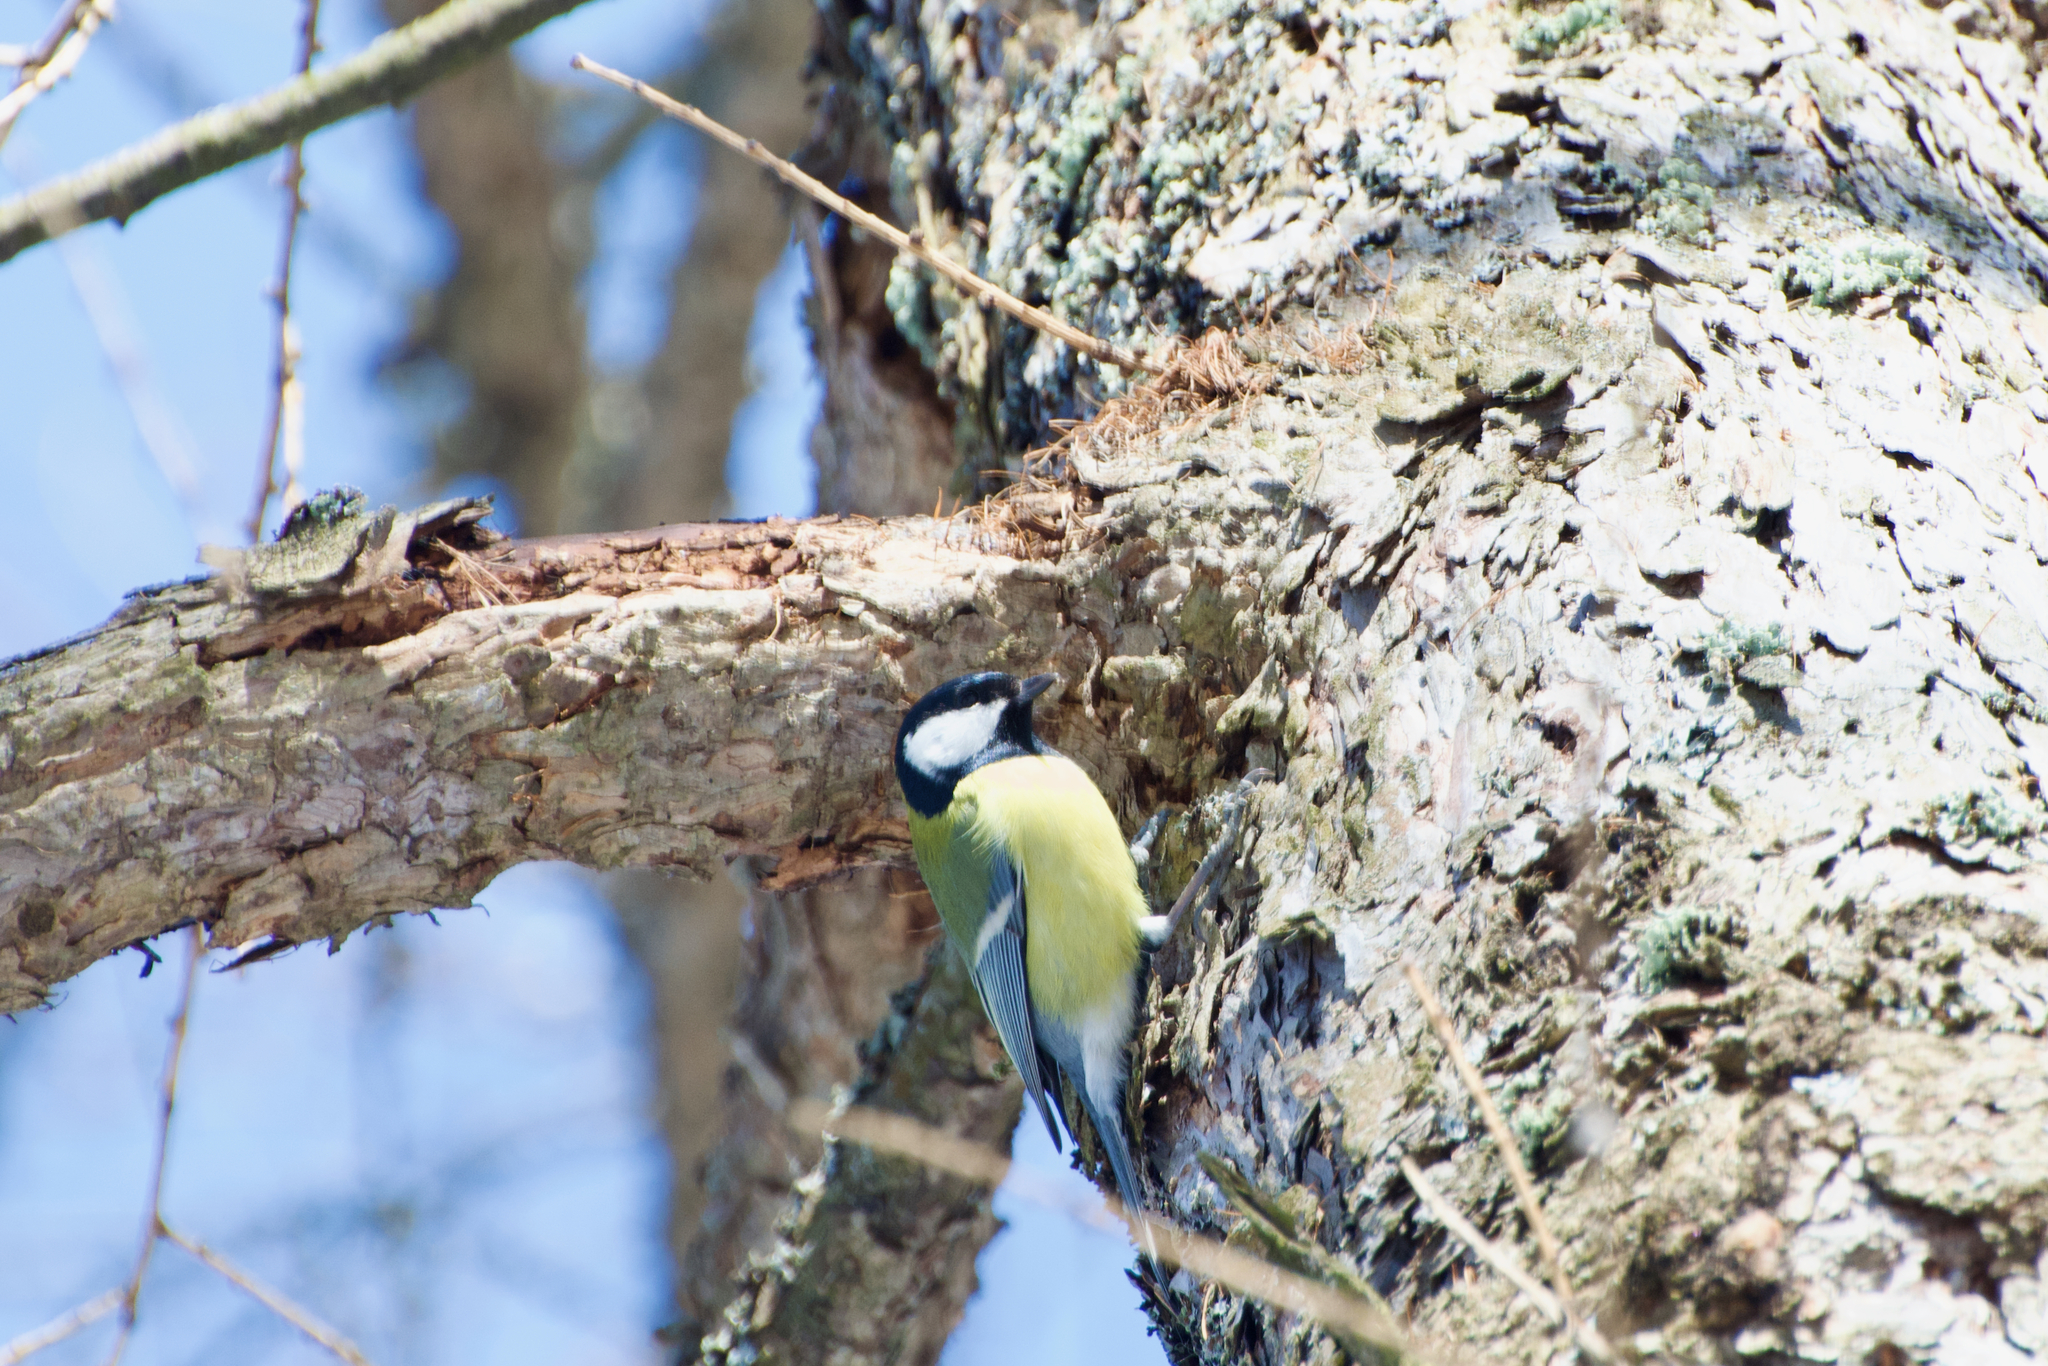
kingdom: Animalia
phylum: Chordata
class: Aves
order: Passeriformes
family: Paridae
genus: Parus
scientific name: Parus major
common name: Great tit
